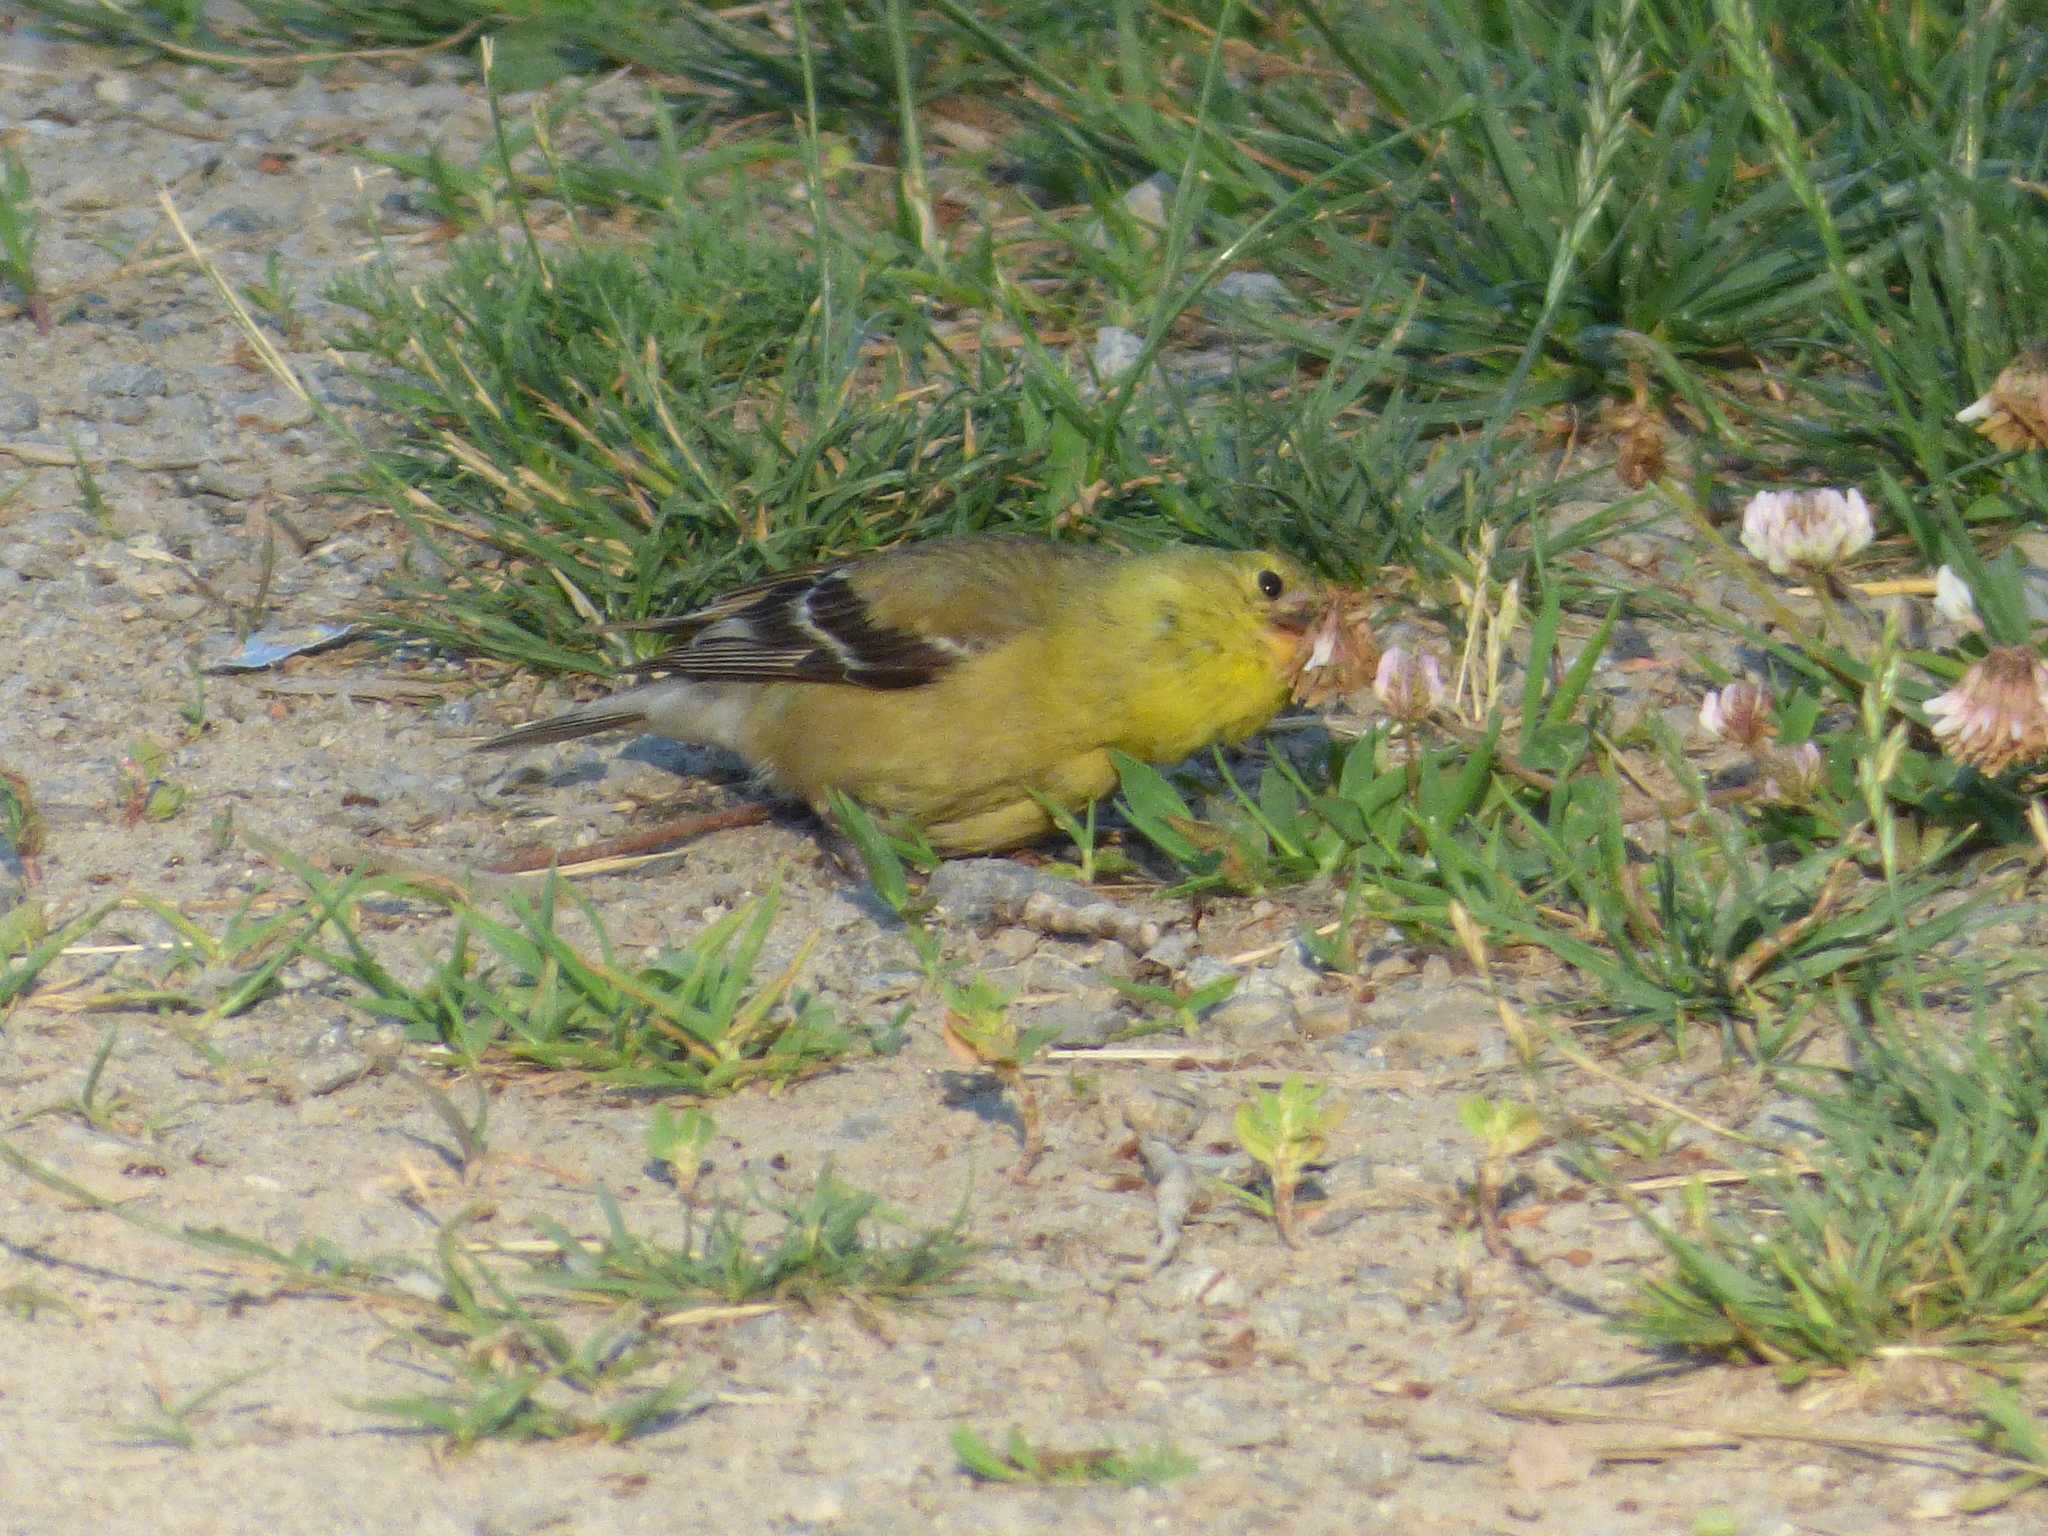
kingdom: Animalia
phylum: Chordata
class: Aves
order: Passeriformes
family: Fringillidae
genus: Spinus
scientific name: Spinus tristis
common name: American goldfinch
